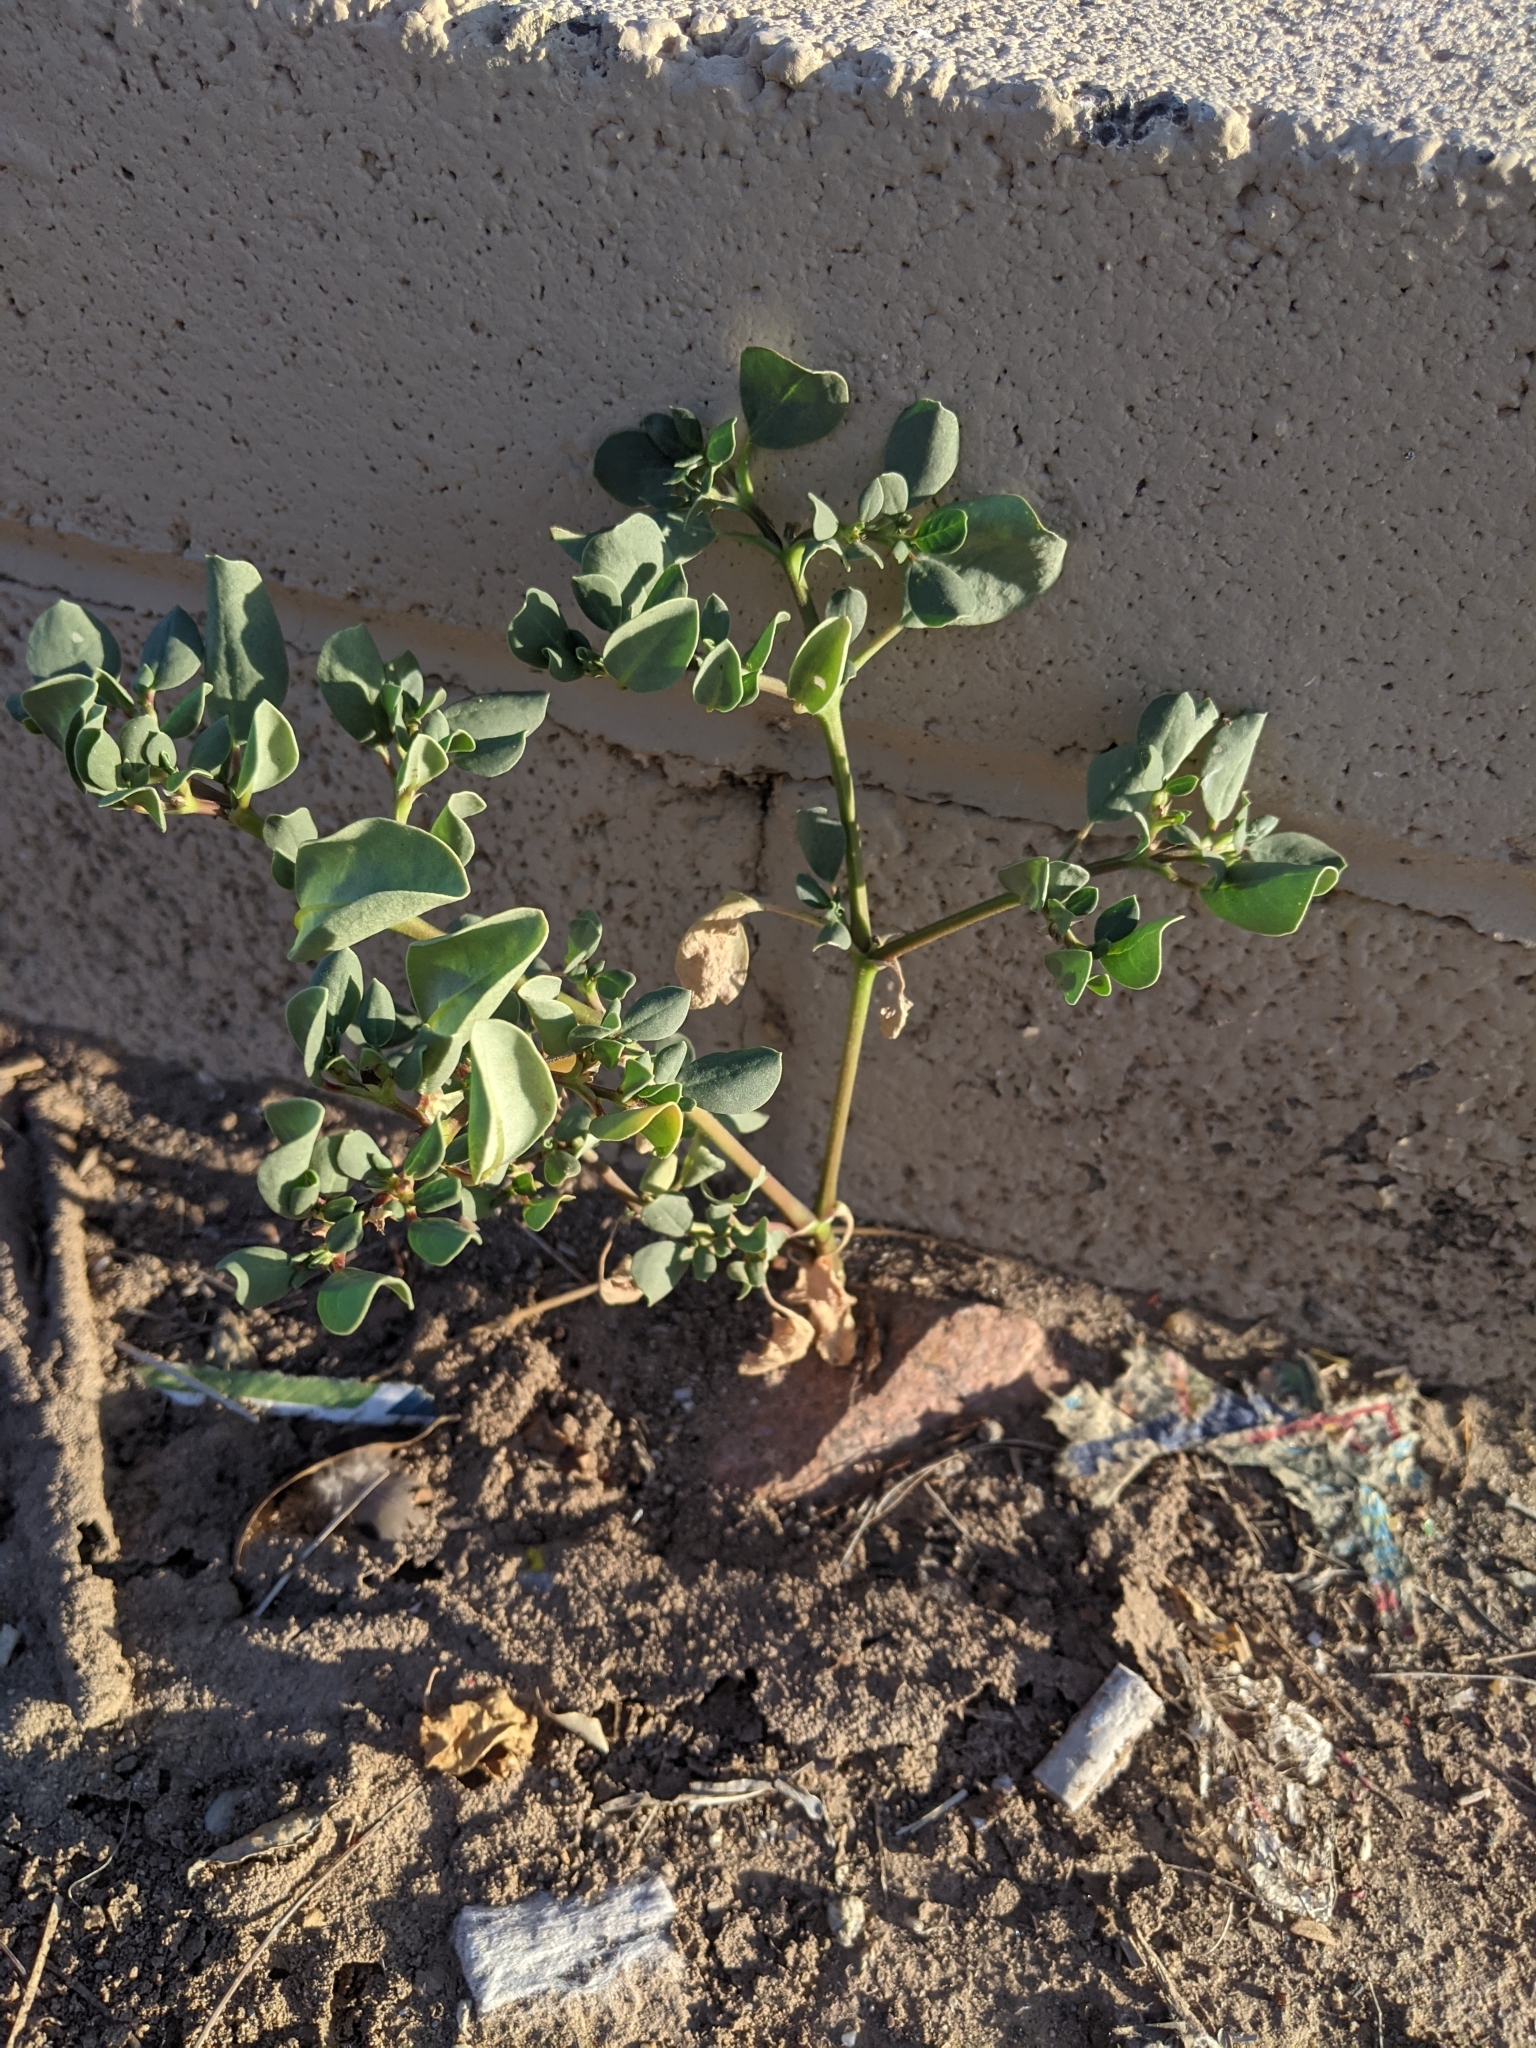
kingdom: Plantae
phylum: Tracheophyta
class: Magnoliopsida
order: Caryophyllales
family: Aizoaceae
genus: Trianthema
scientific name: Trianthema portulacastrum
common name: Desert horsepurslane
